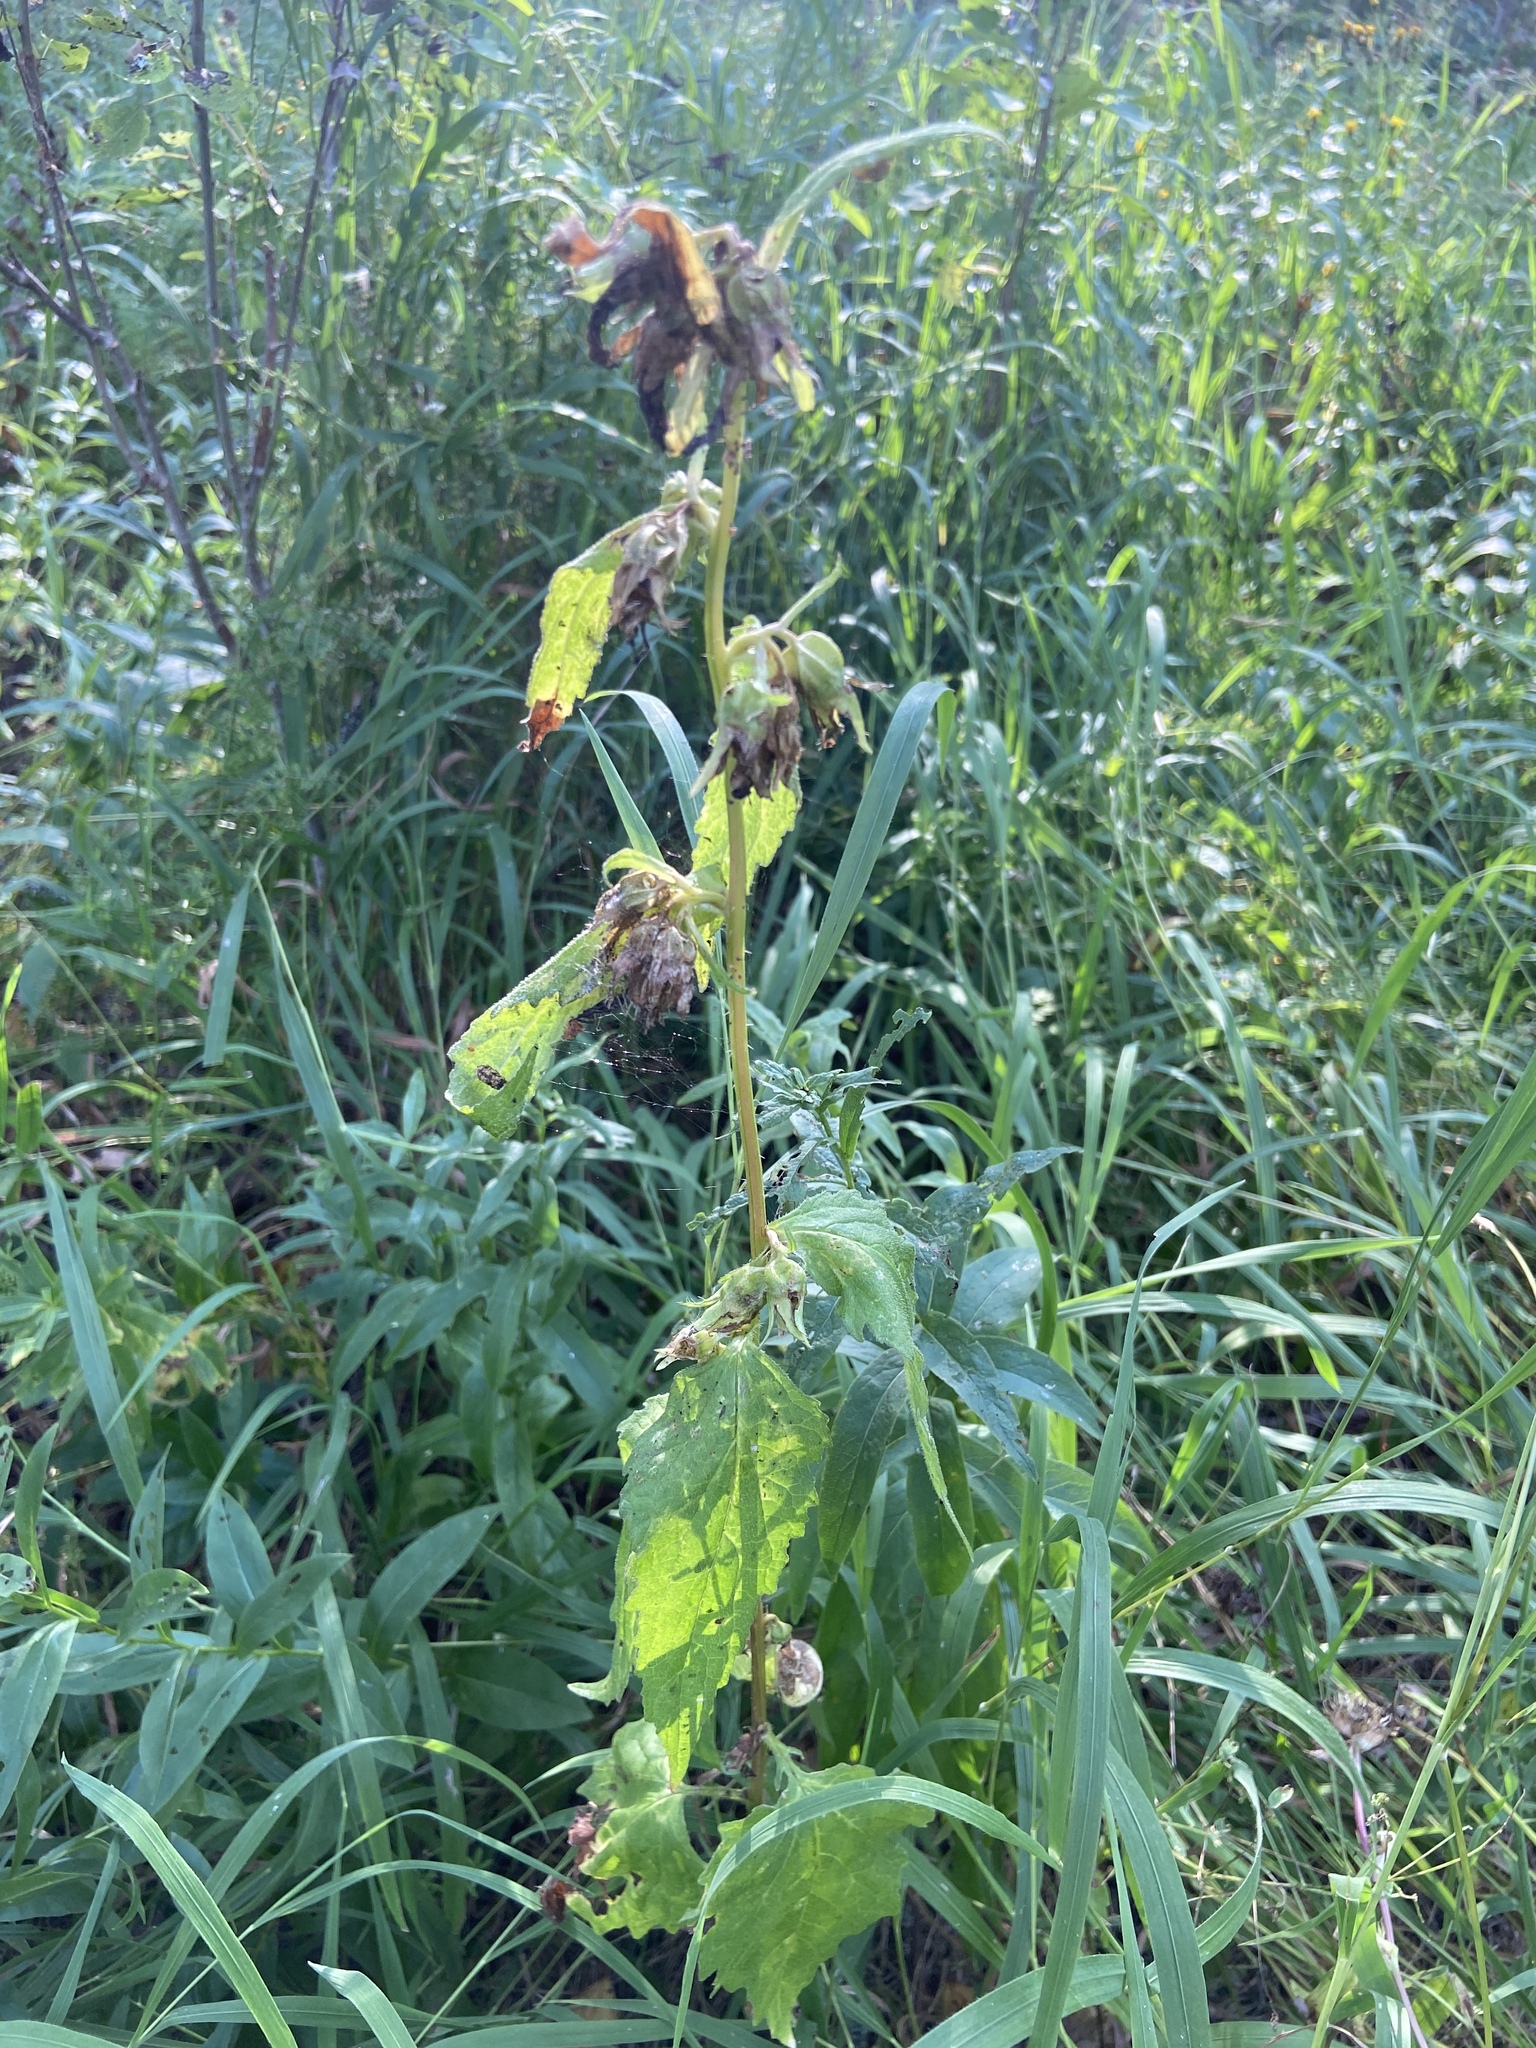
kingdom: Plantae
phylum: Tracheophyta
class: Magnoliopsida
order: Asterales
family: Campanulaceae
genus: Campanula
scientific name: Campanula latifolia
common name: Giant bellflower
